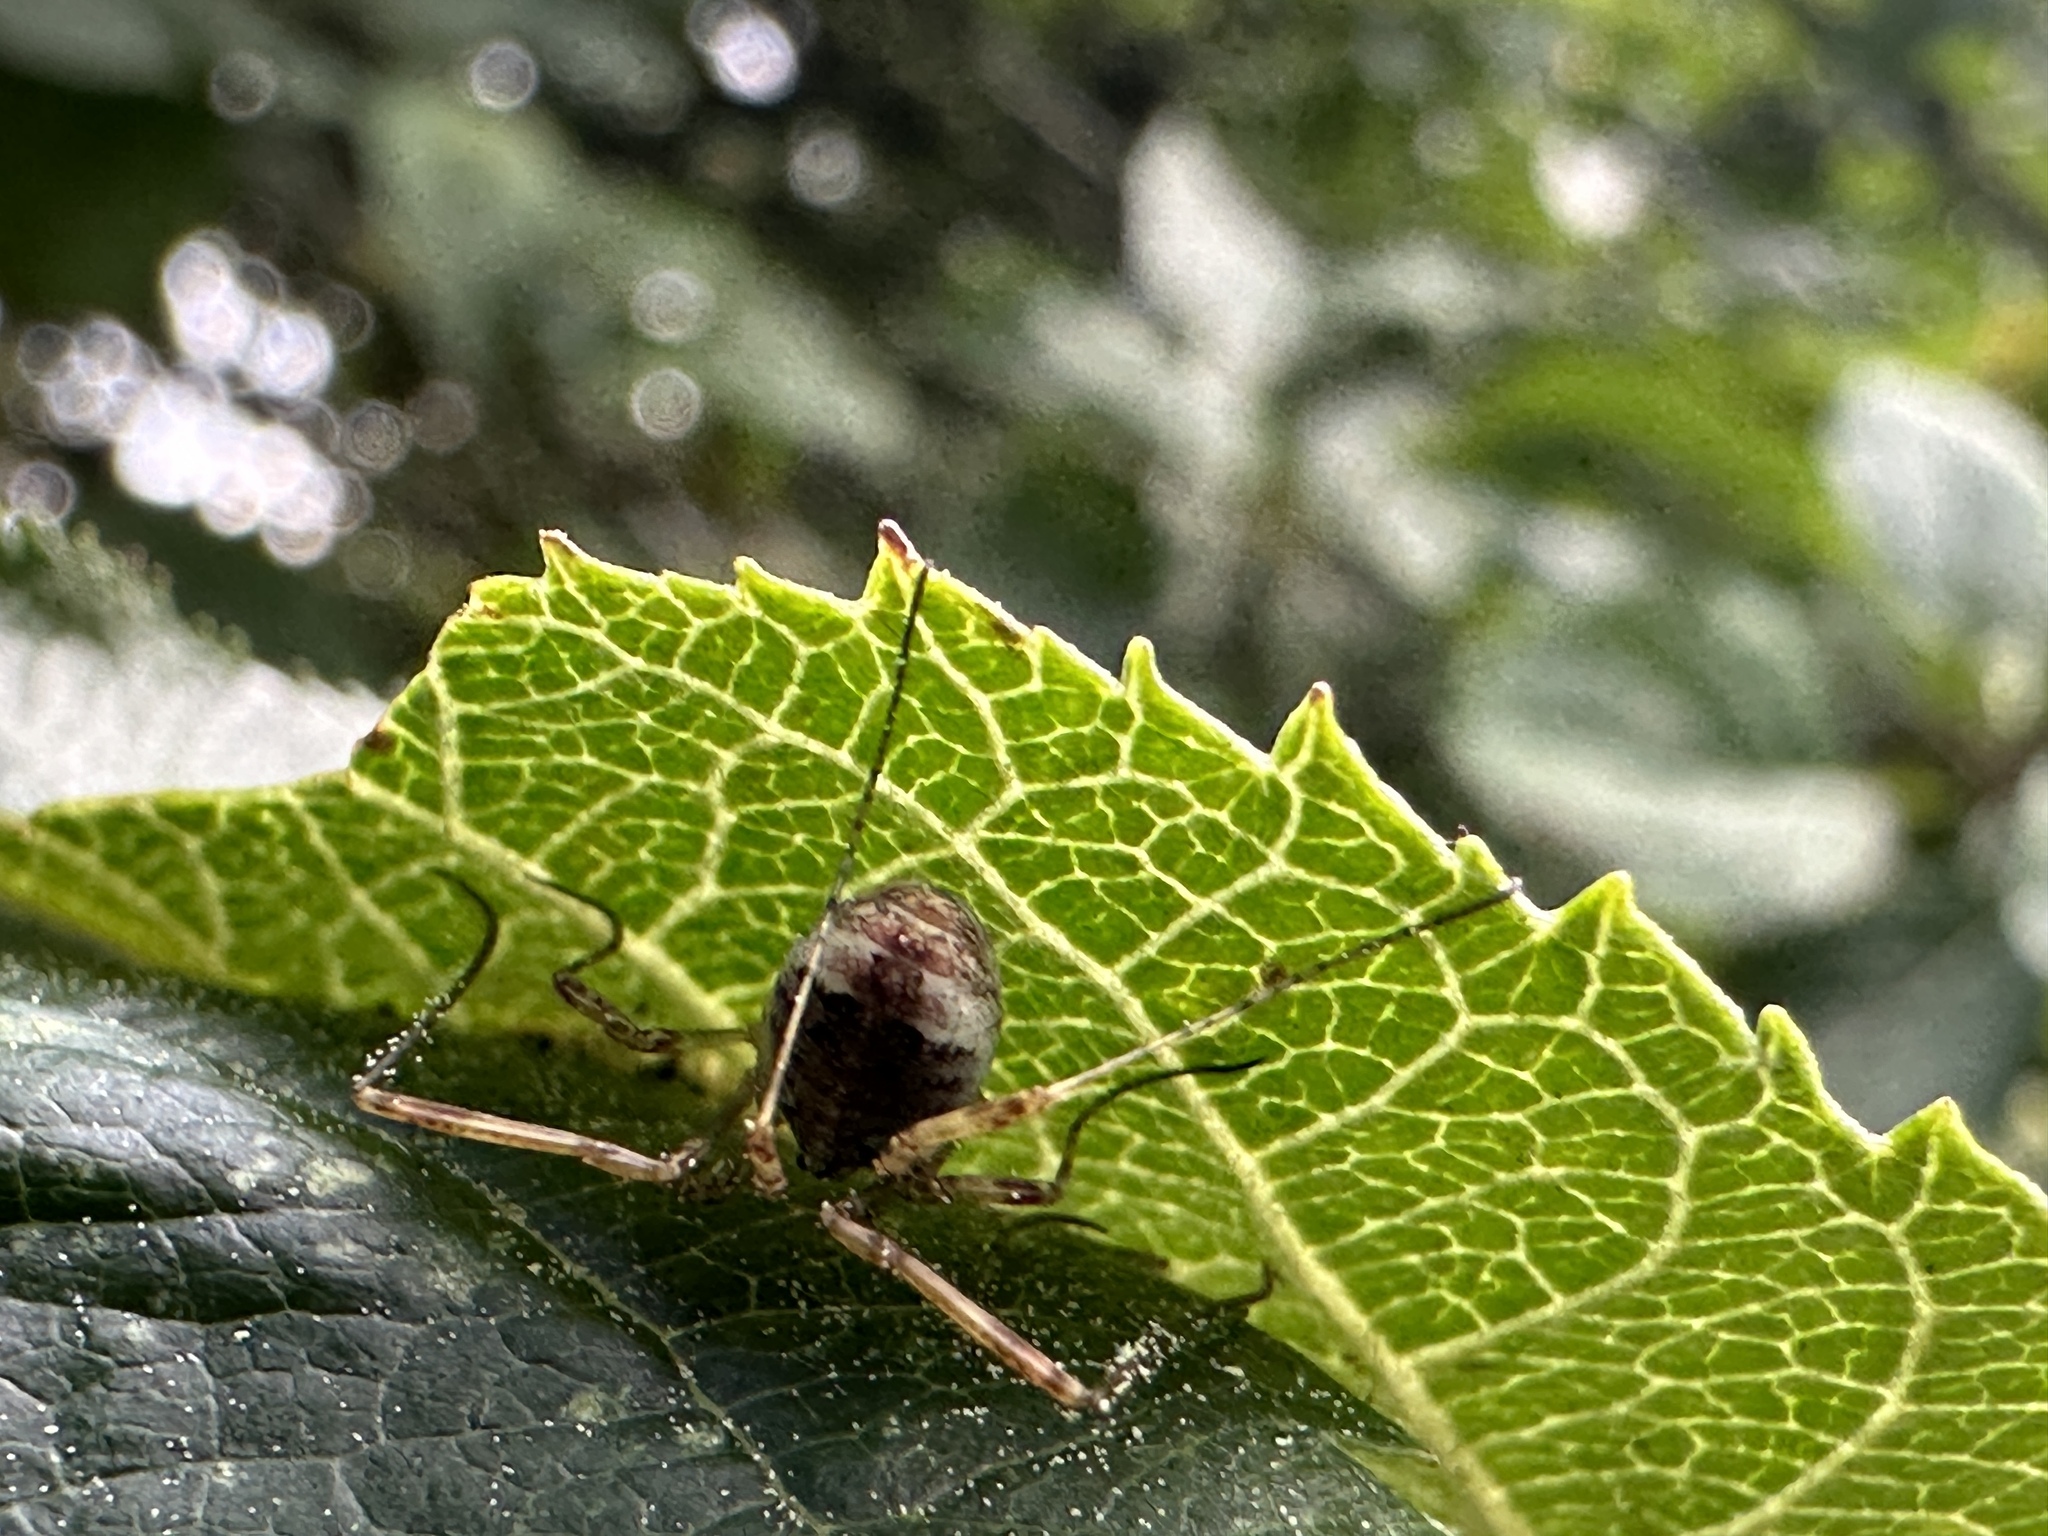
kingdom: Animalia
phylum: Arthropoda
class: Arachnida
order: Opiliones
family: Phalangiidae
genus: Paroligolophus
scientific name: Paroligolophus agrestis
